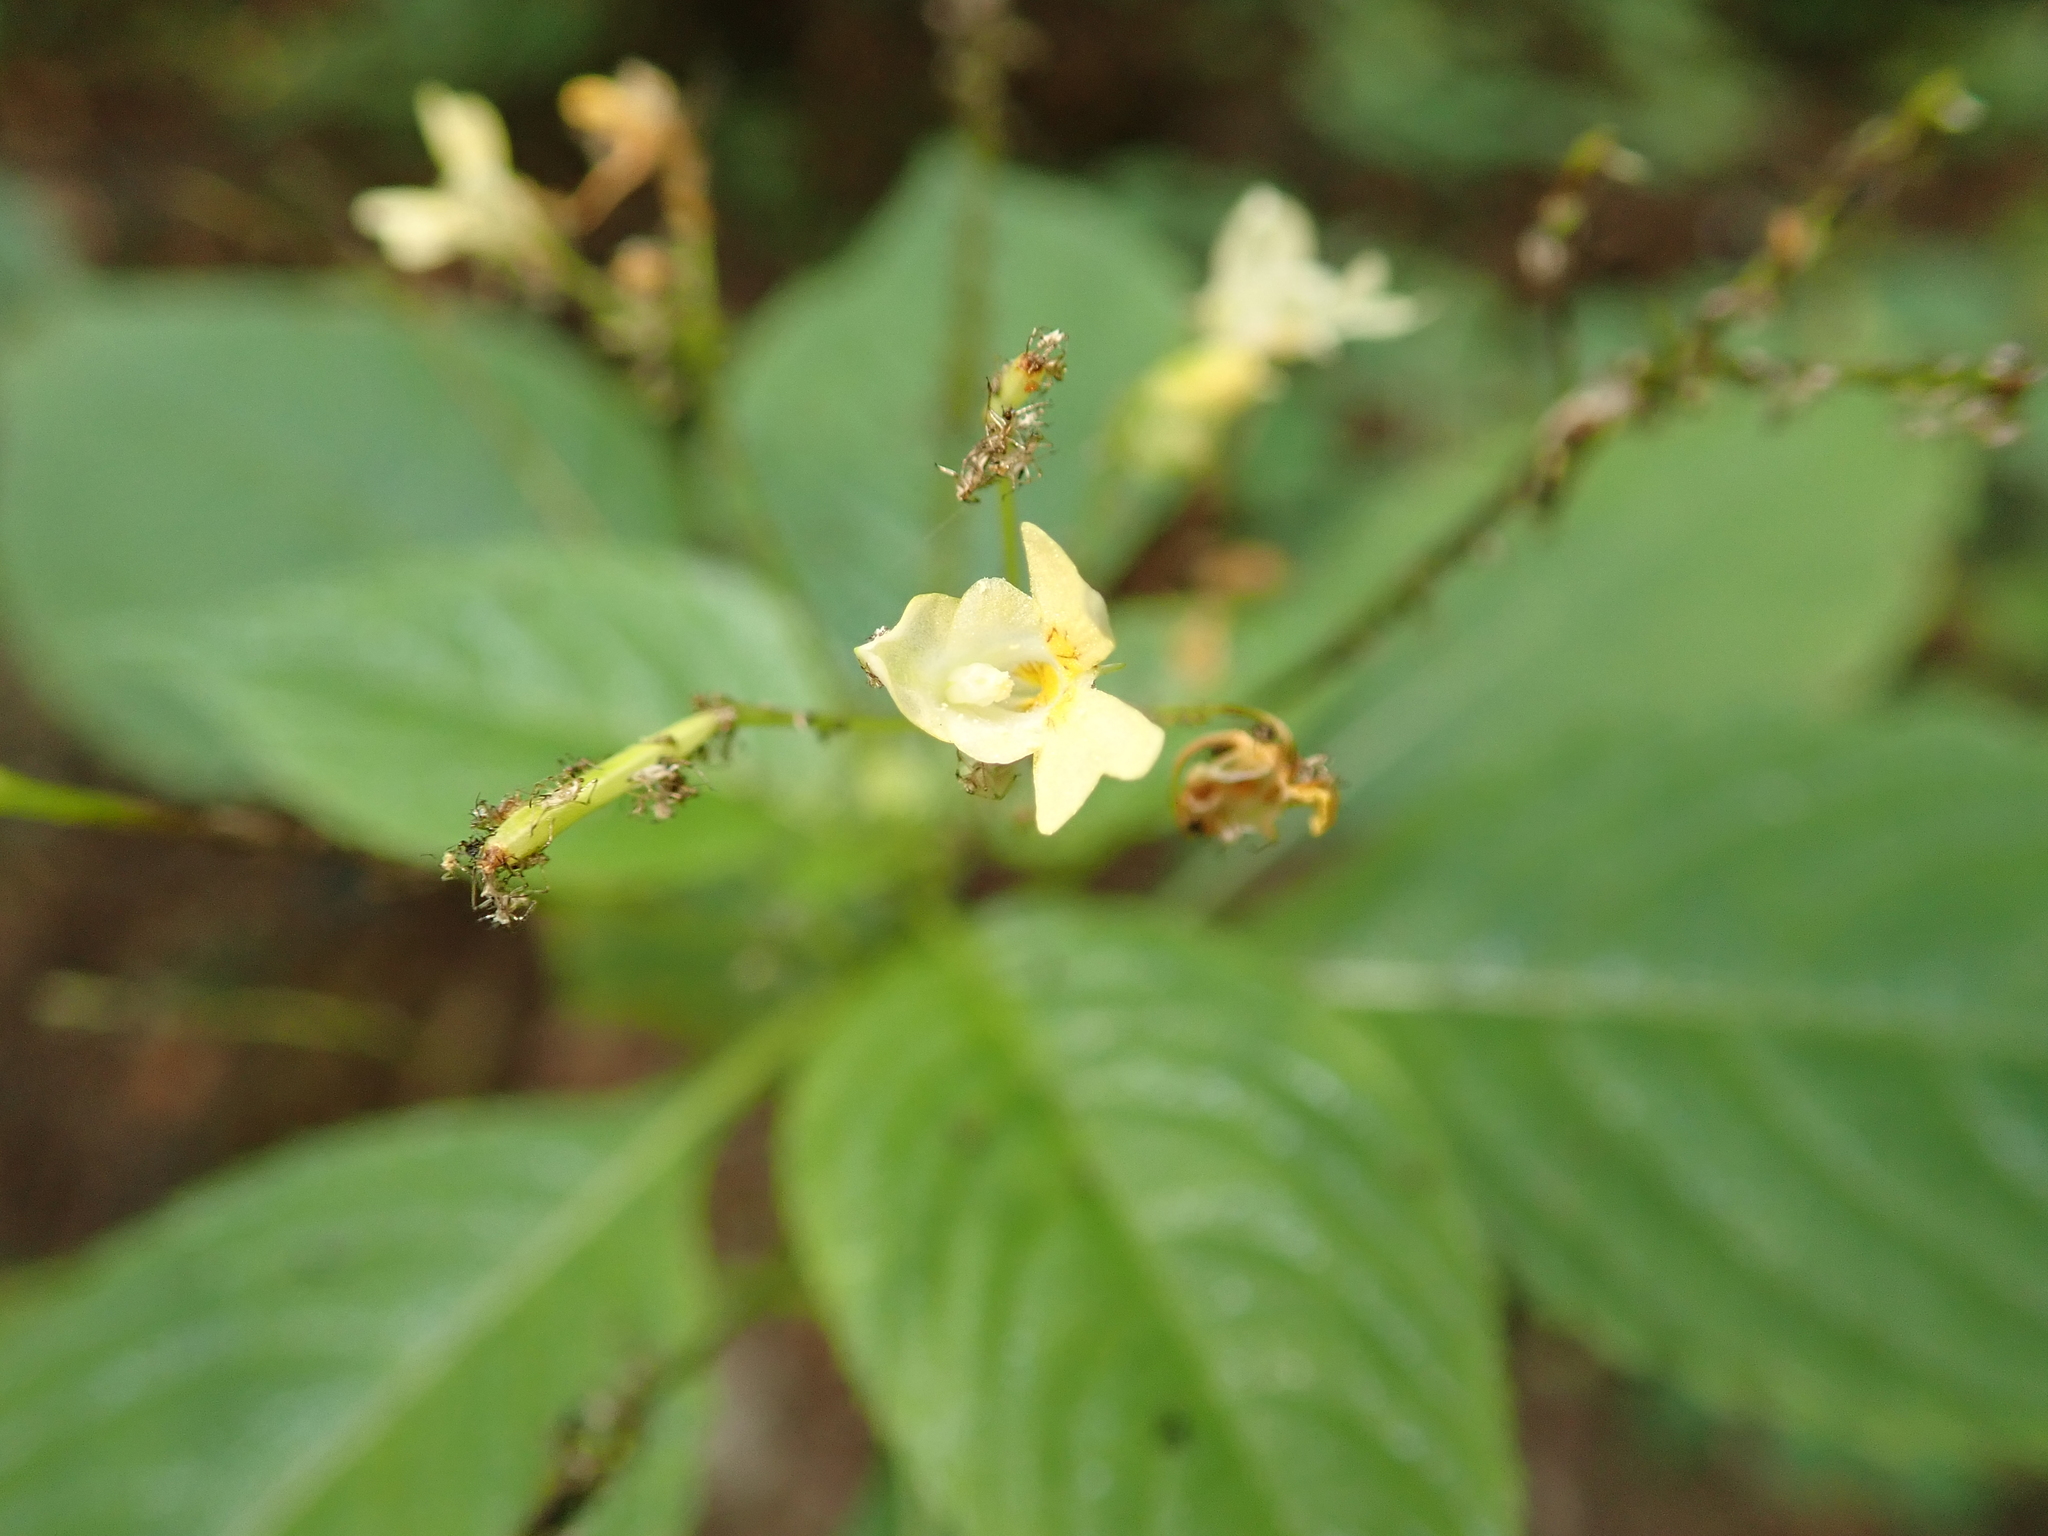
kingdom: Plantae
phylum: Tracheophyta
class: Magnoliopsida
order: Ericales
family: Balsaminaceae
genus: Impatiens
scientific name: Impatiens parviflora
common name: Small balsam
